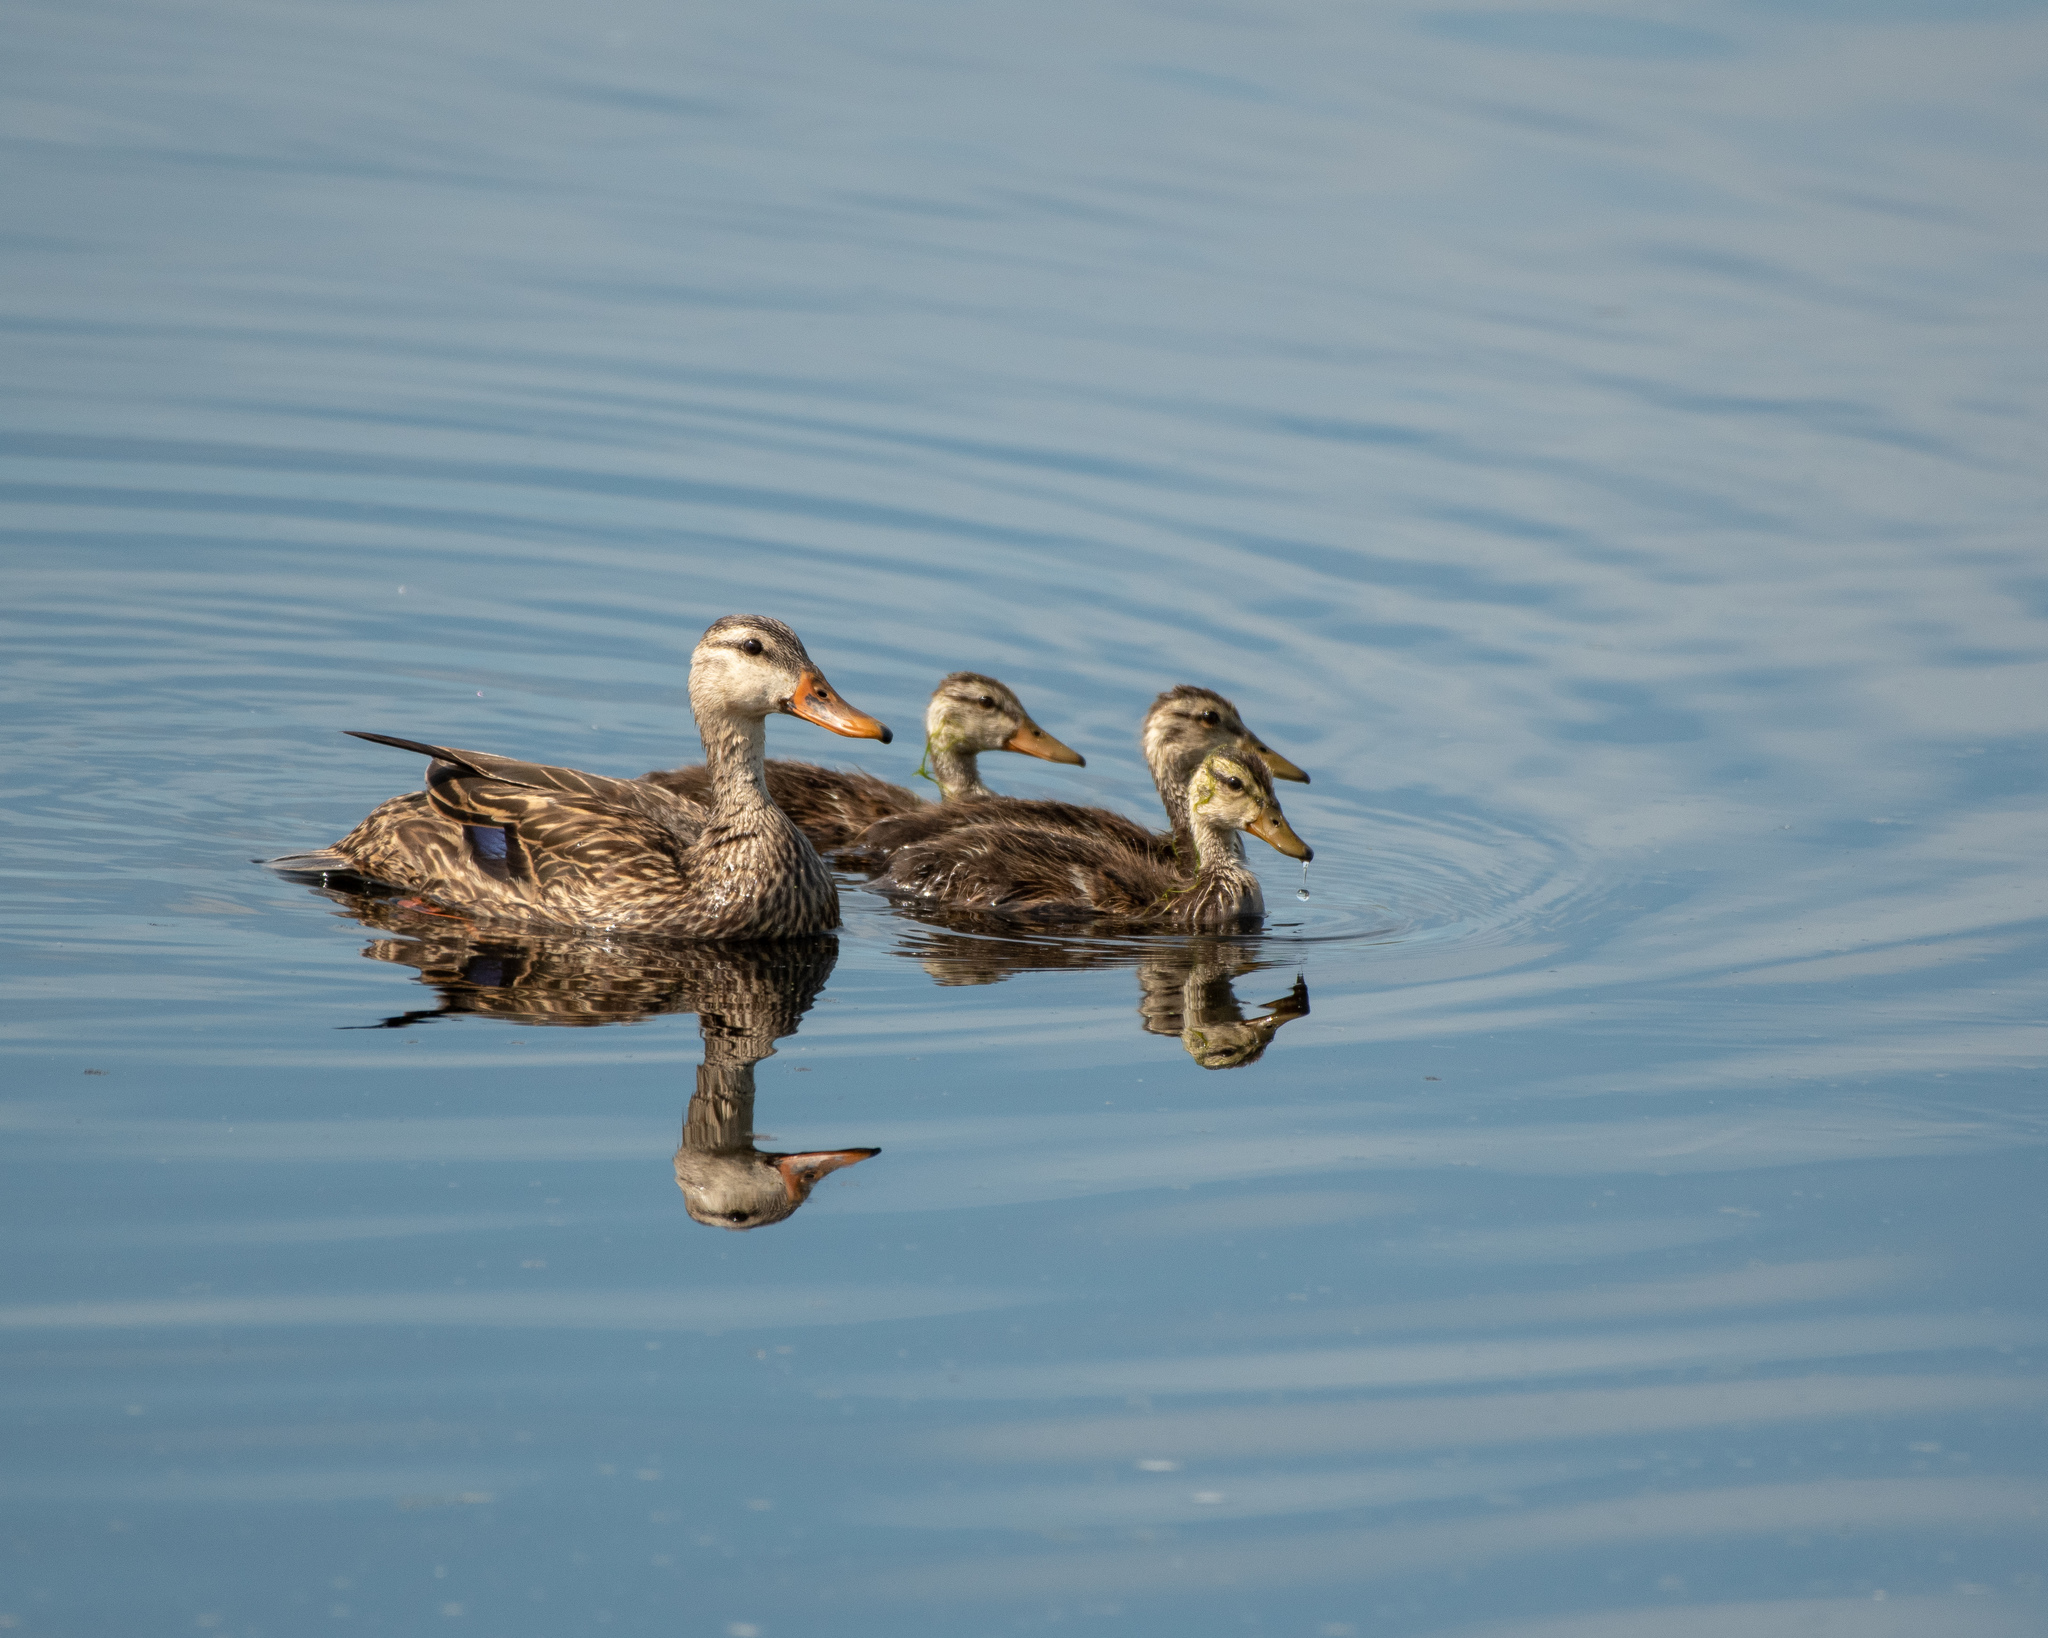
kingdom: Animalia
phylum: Chordata
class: Aves
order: Anseriformes
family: Anatidae
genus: Anas
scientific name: Anas fulvigula
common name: Mottled duck
